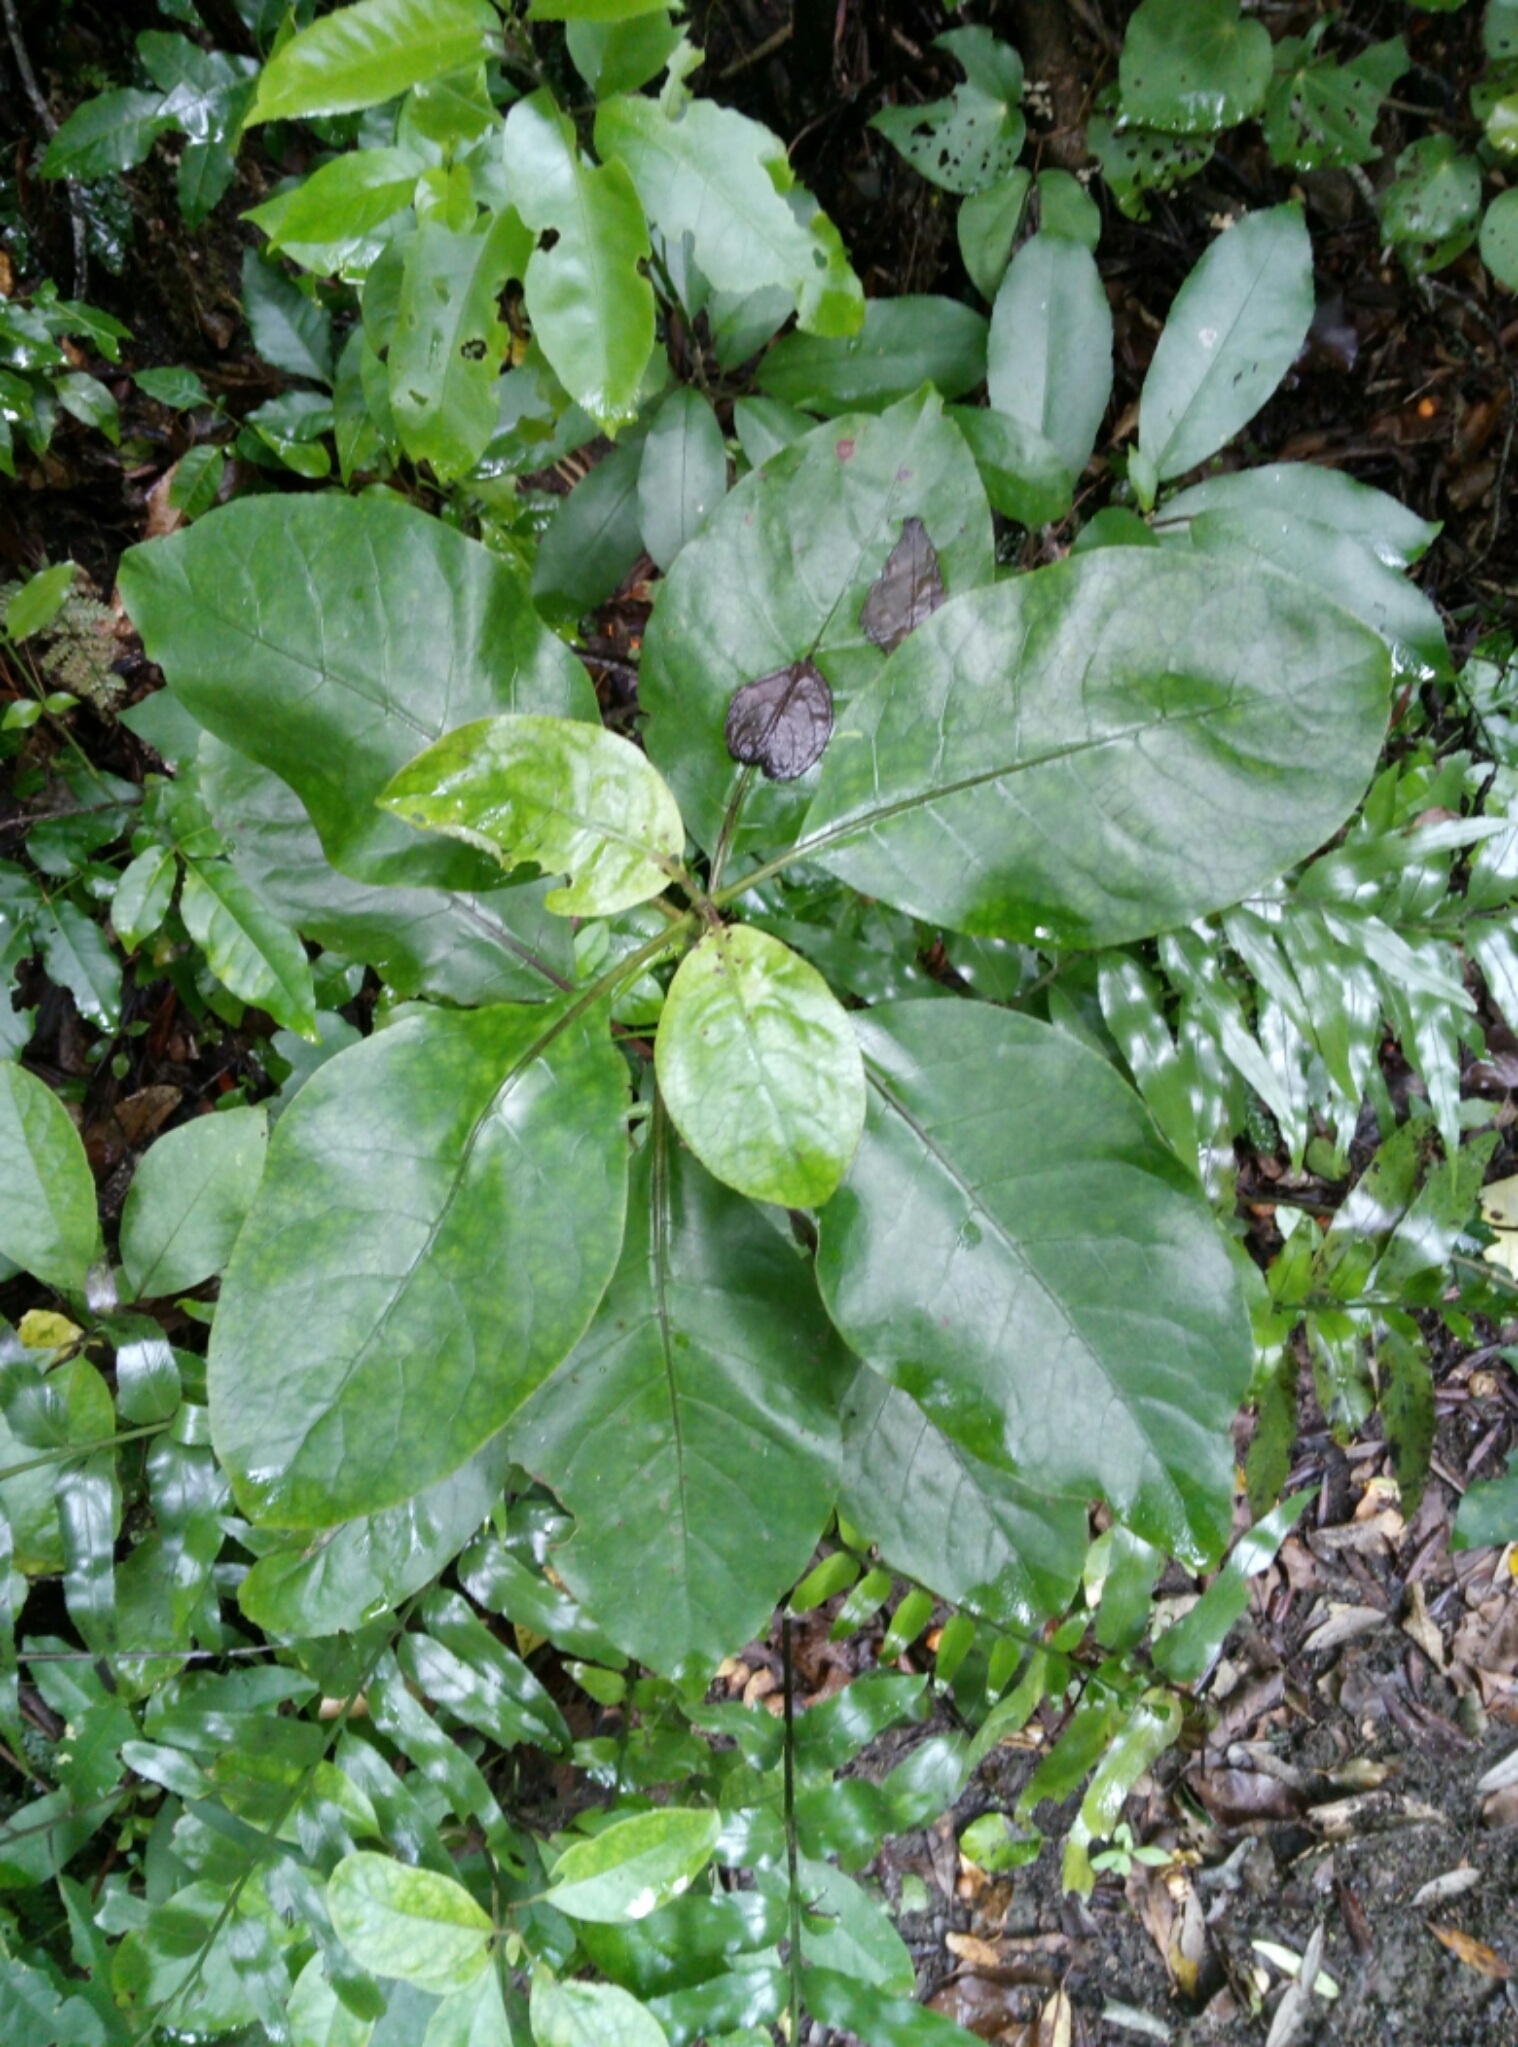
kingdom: Plantae
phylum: Tracheophyta
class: Magnoliopsida
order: Gentianales
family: Rubiaceae
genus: Coprosma
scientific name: Coprosma autumnalis
